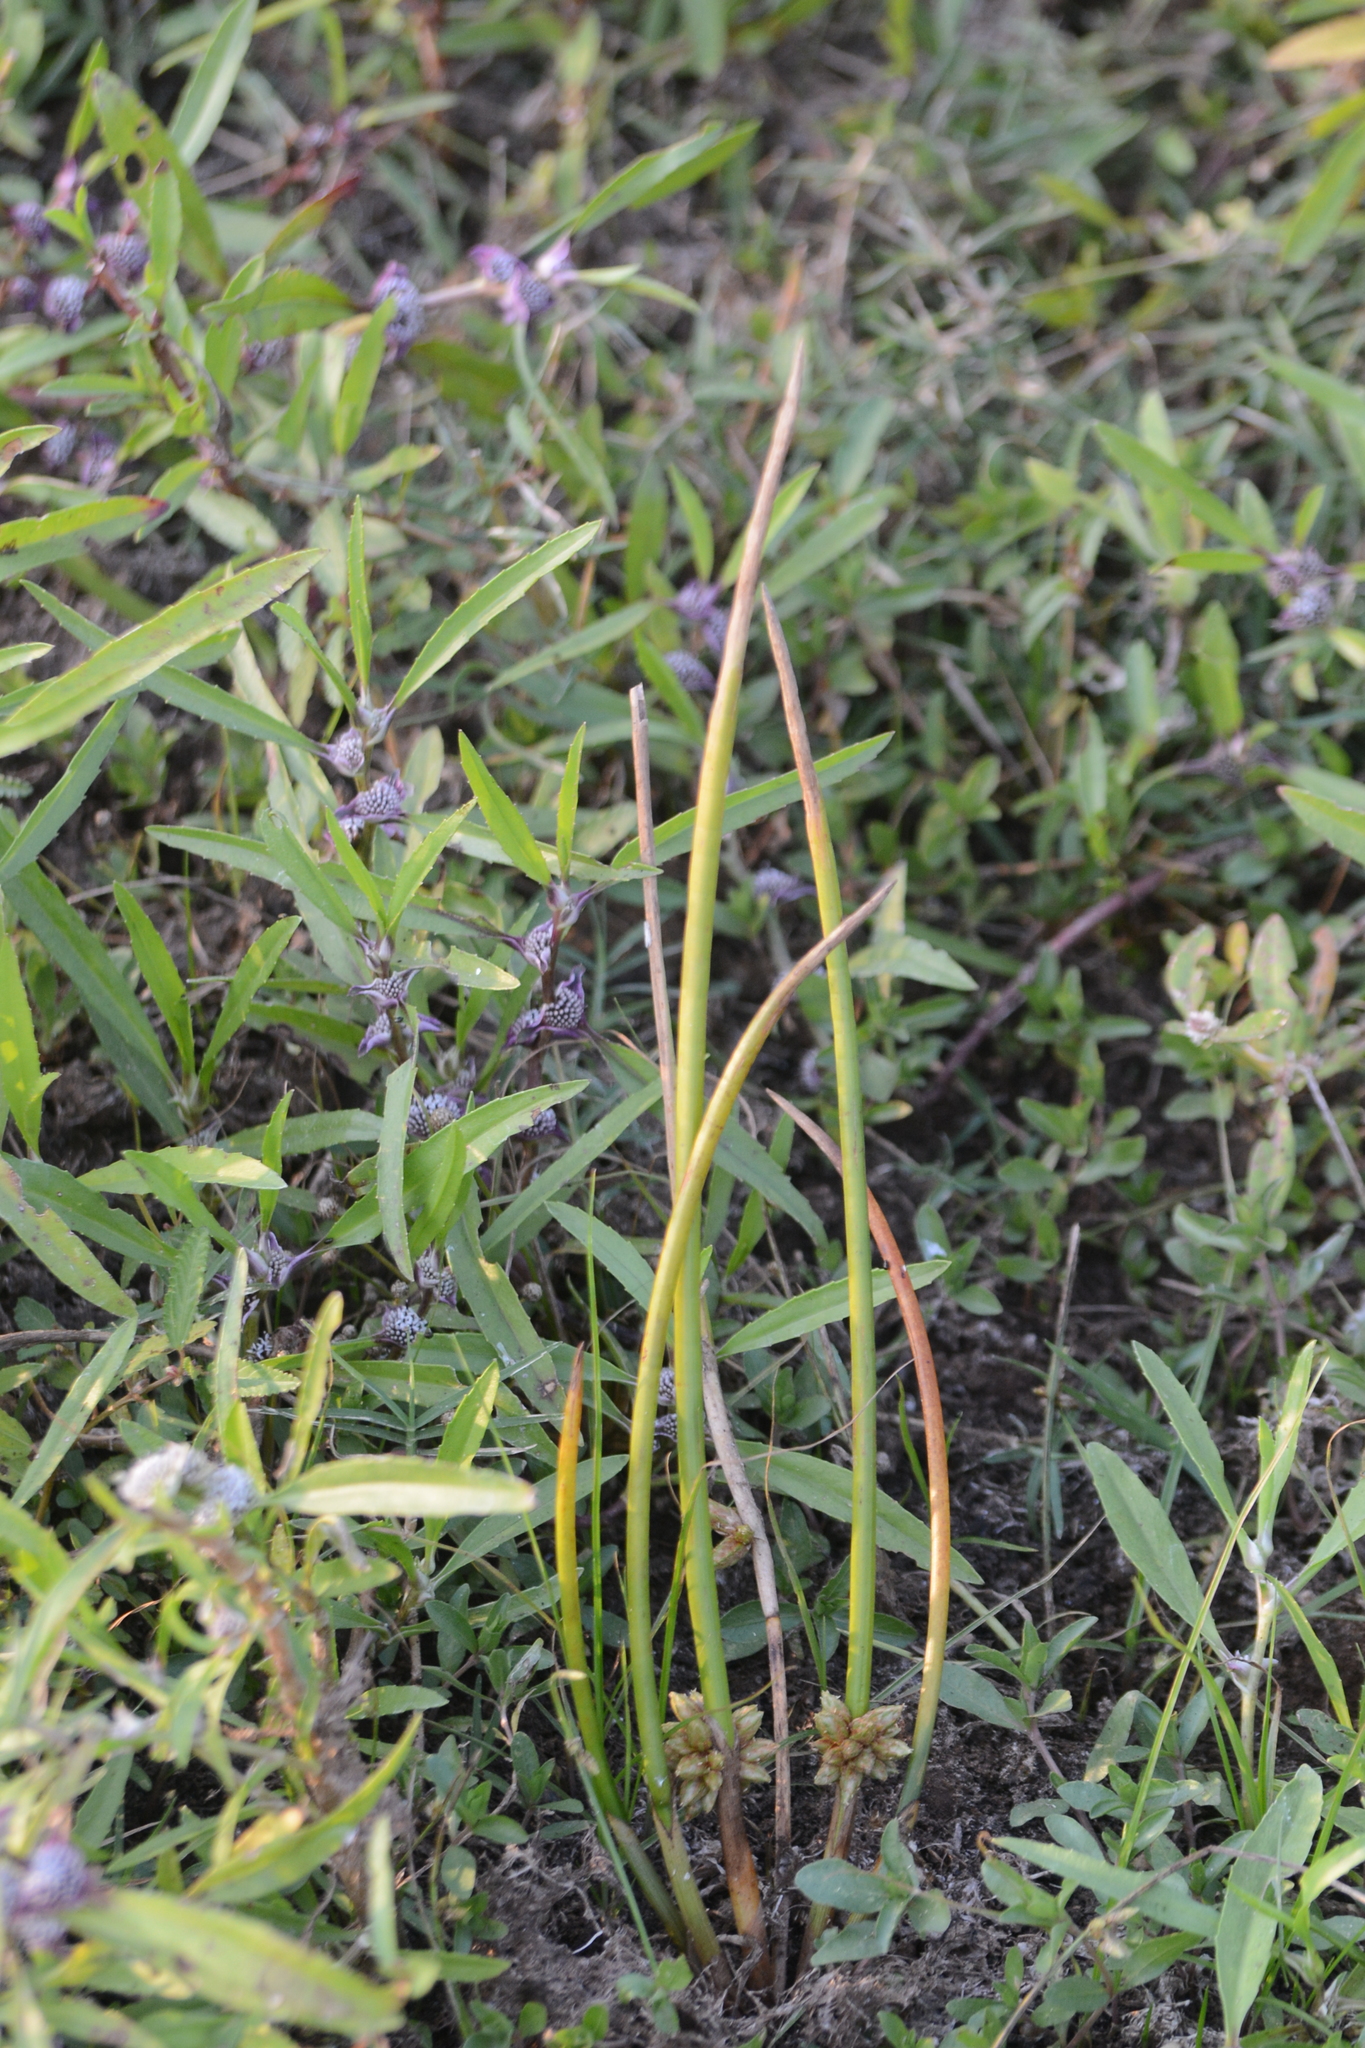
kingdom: Plantae
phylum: Tracheophyta
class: Liliopsida
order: Poales
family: Cyperaceae
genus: Schoenoplectiella
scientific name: Schoenoplectiella articulata
